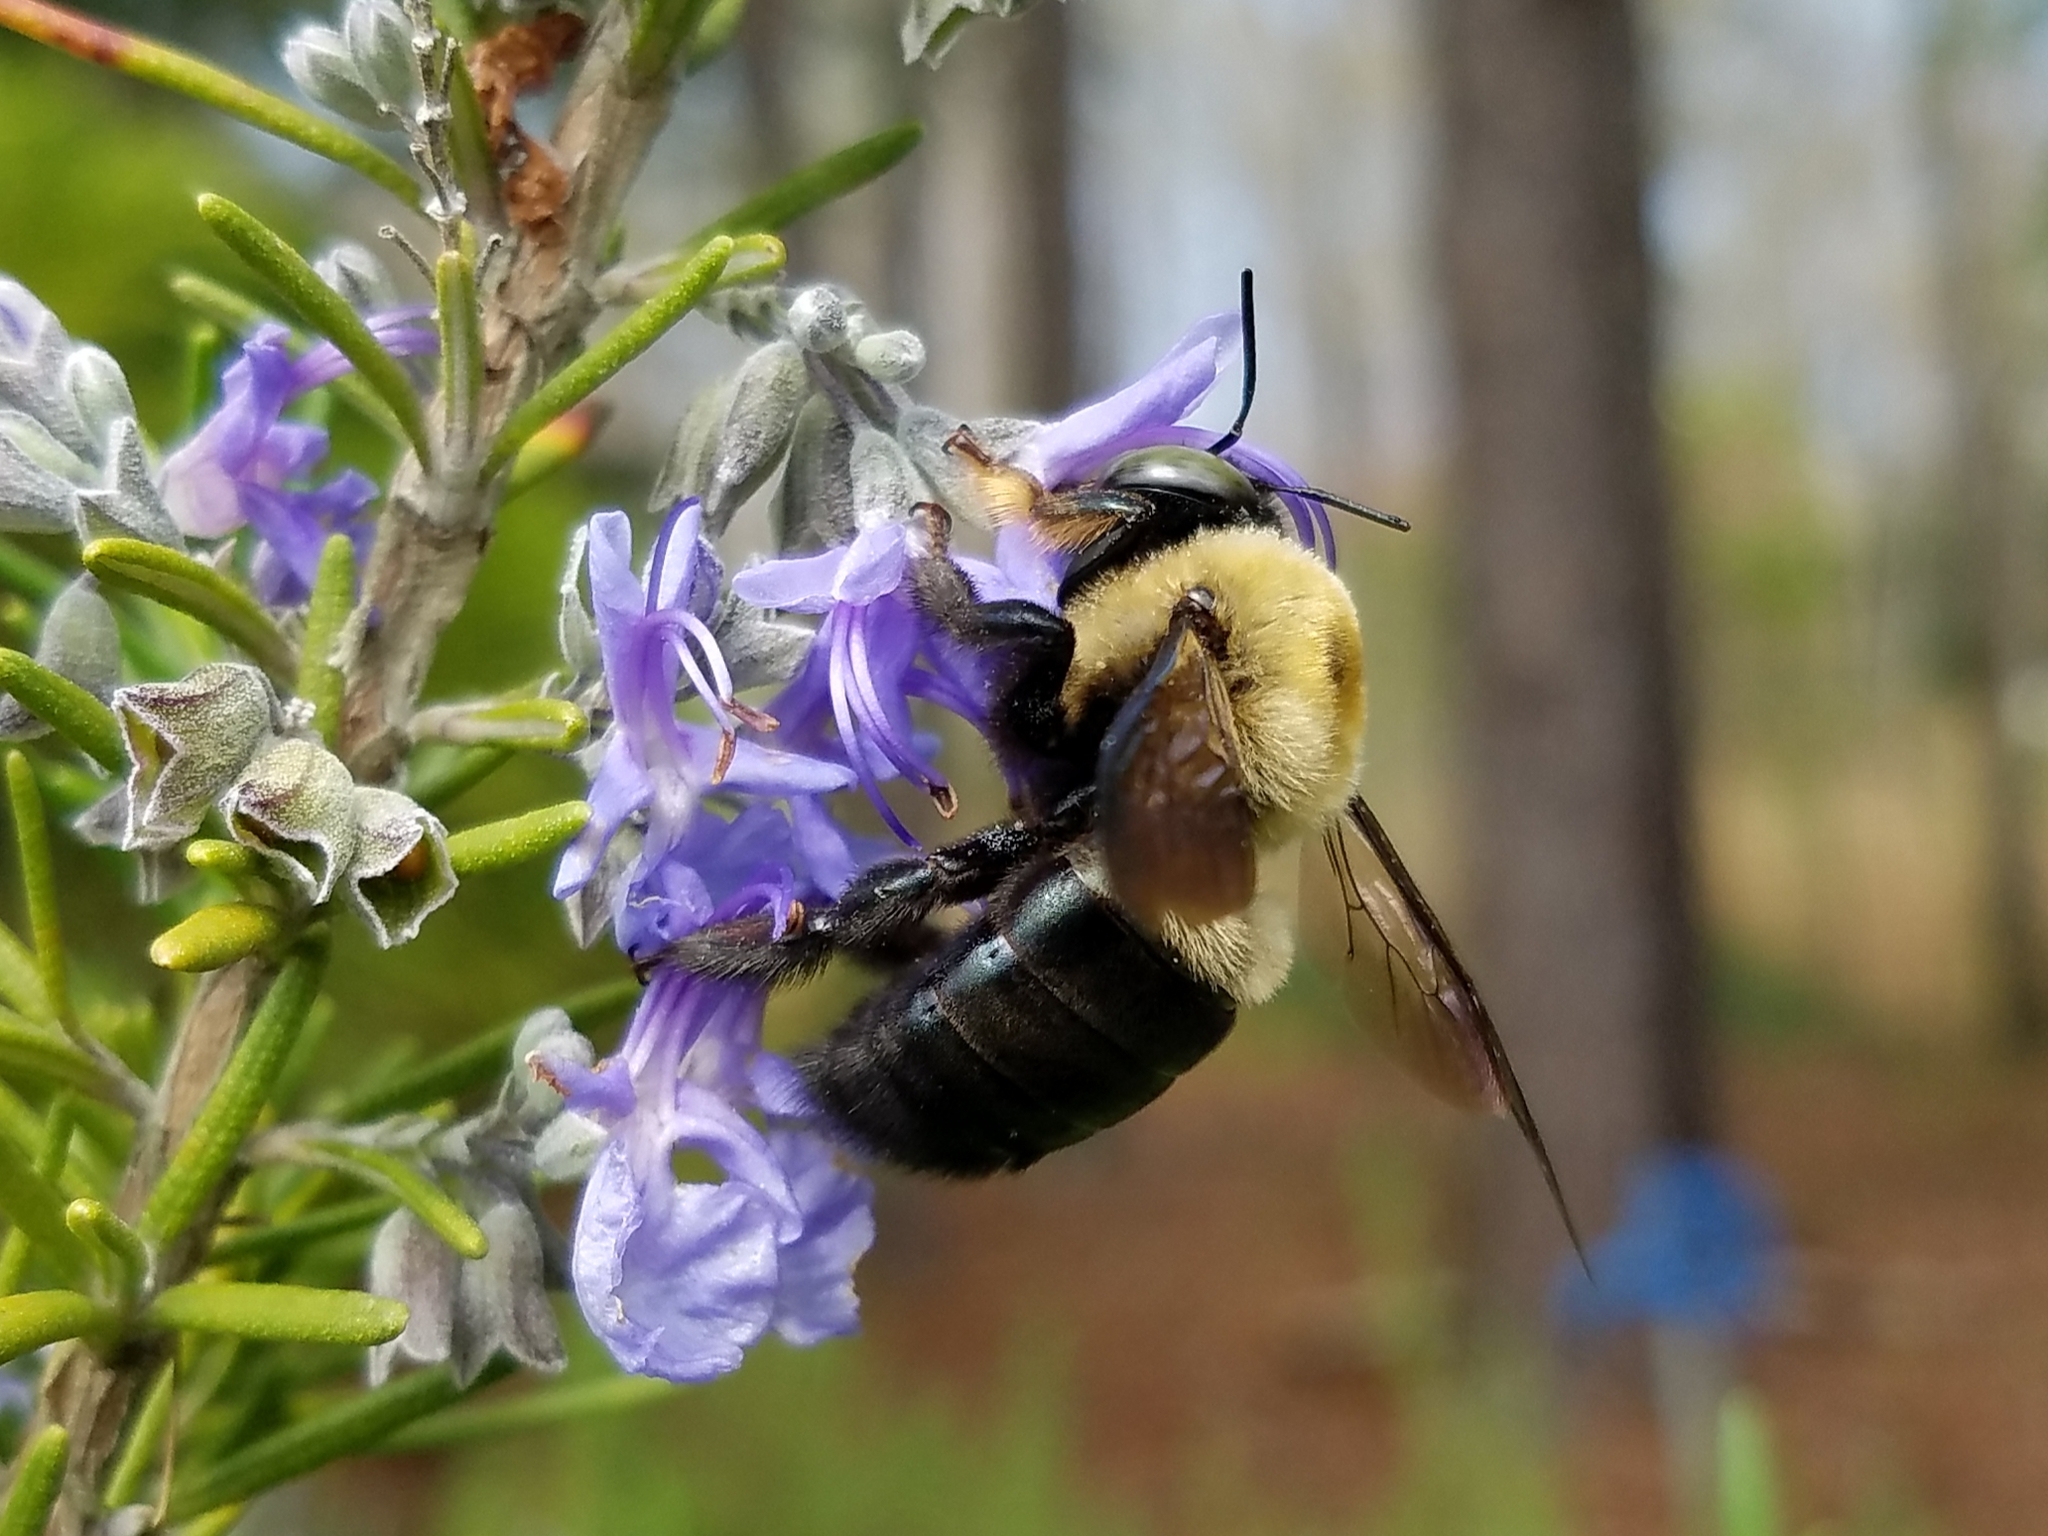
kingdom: Animalia
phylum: Arthropoda
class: Insecta
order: Hymenoptera
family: Apidae
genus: Xylocopa
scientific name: Xylocopa virginica
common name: Carpenter bee
